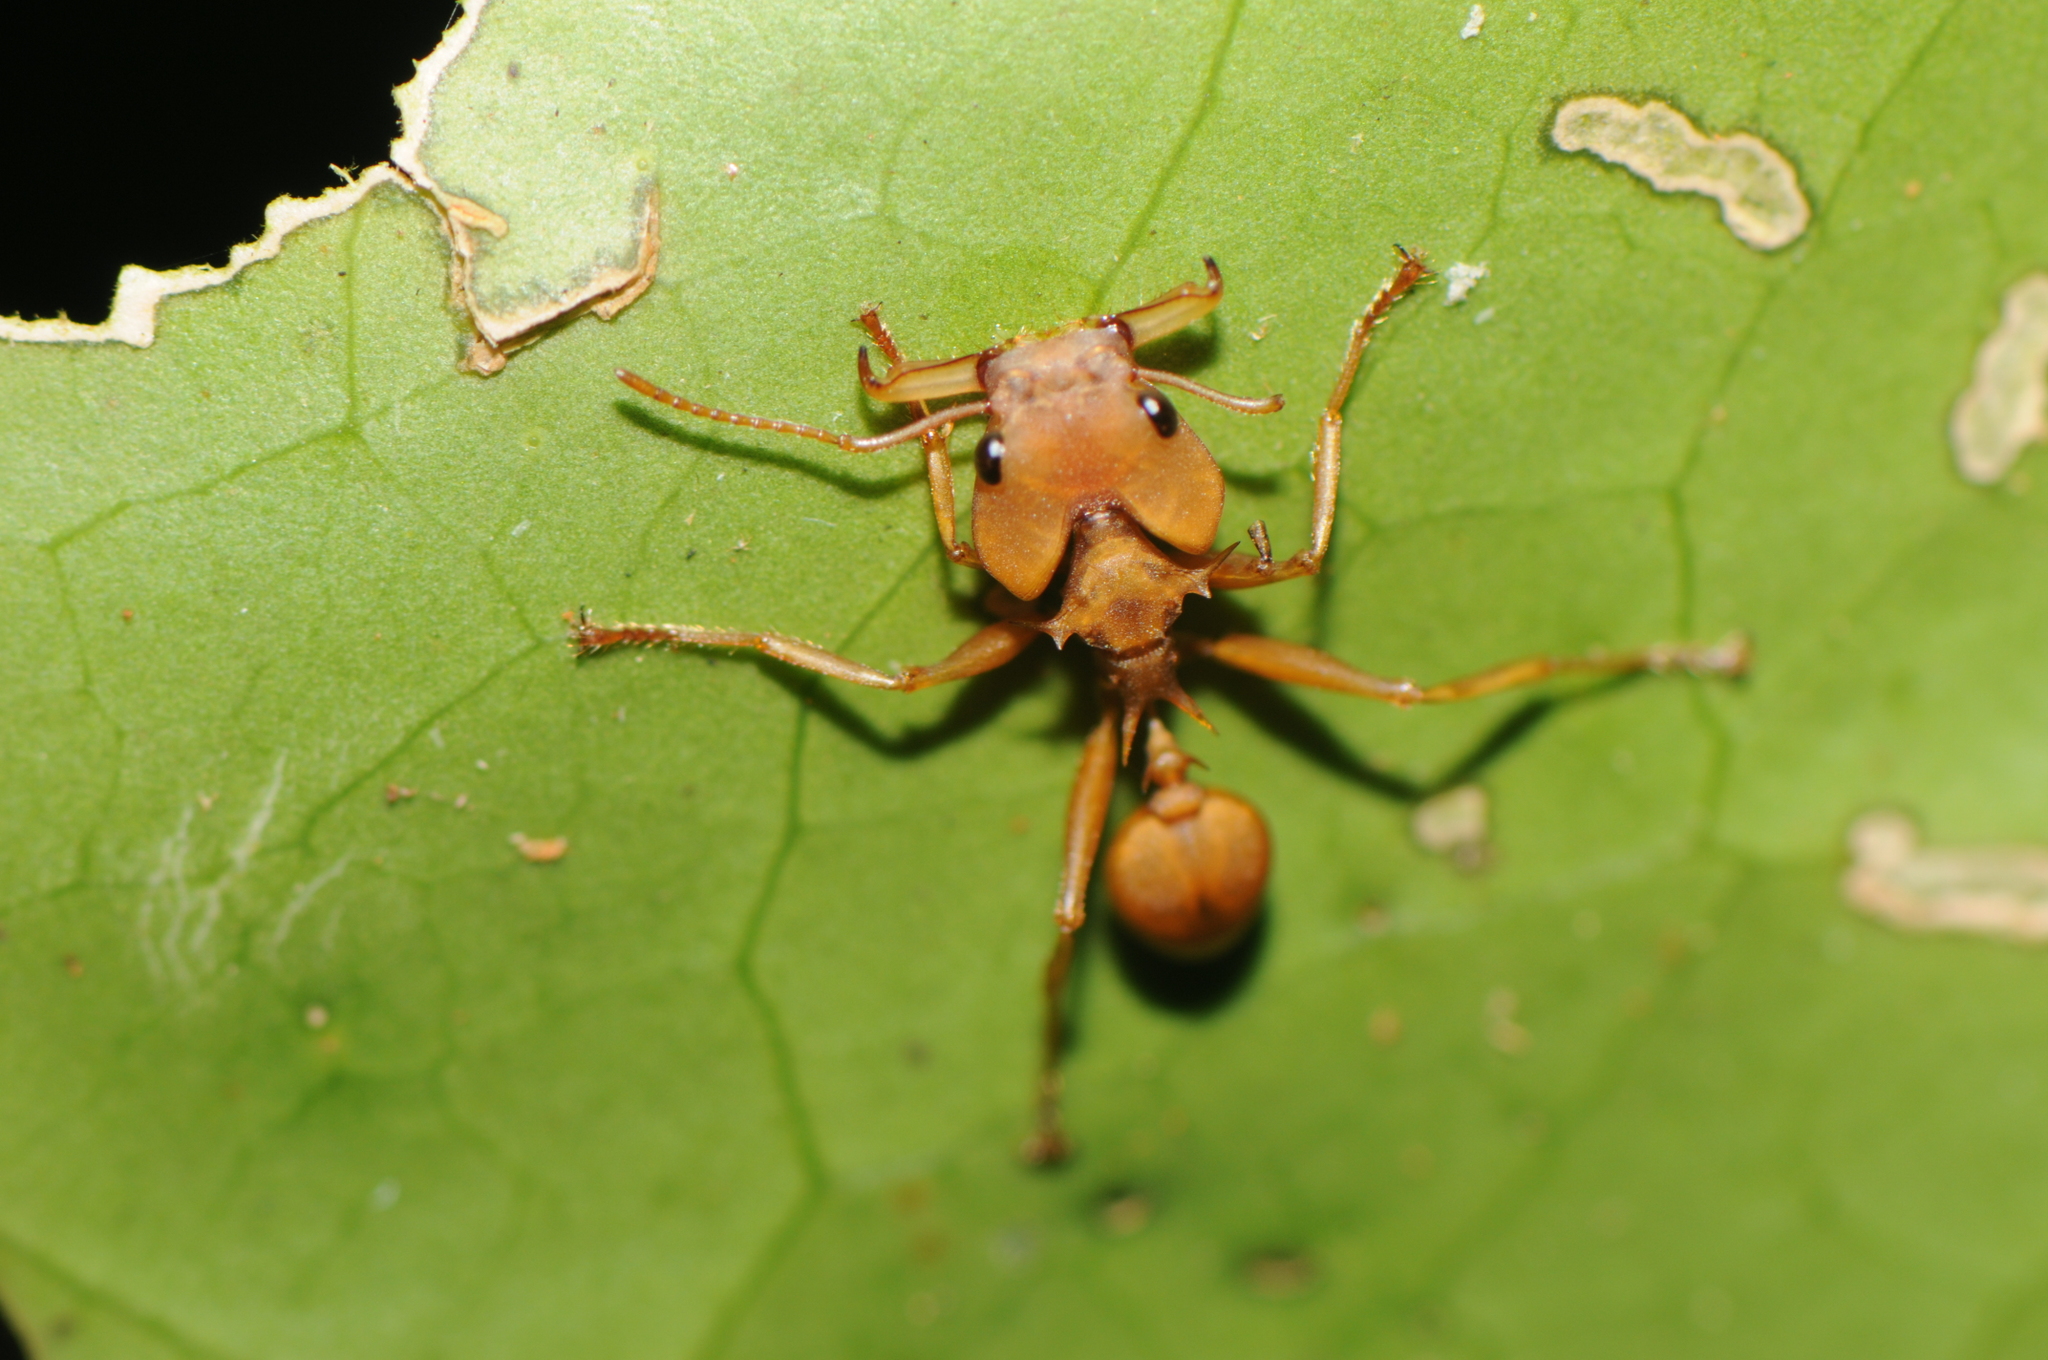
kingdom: Animalia
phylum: Arthropoda
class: Insecta
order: Hymenoptera
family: Formicidae
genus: Daceton
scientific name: Daceton armigerum
